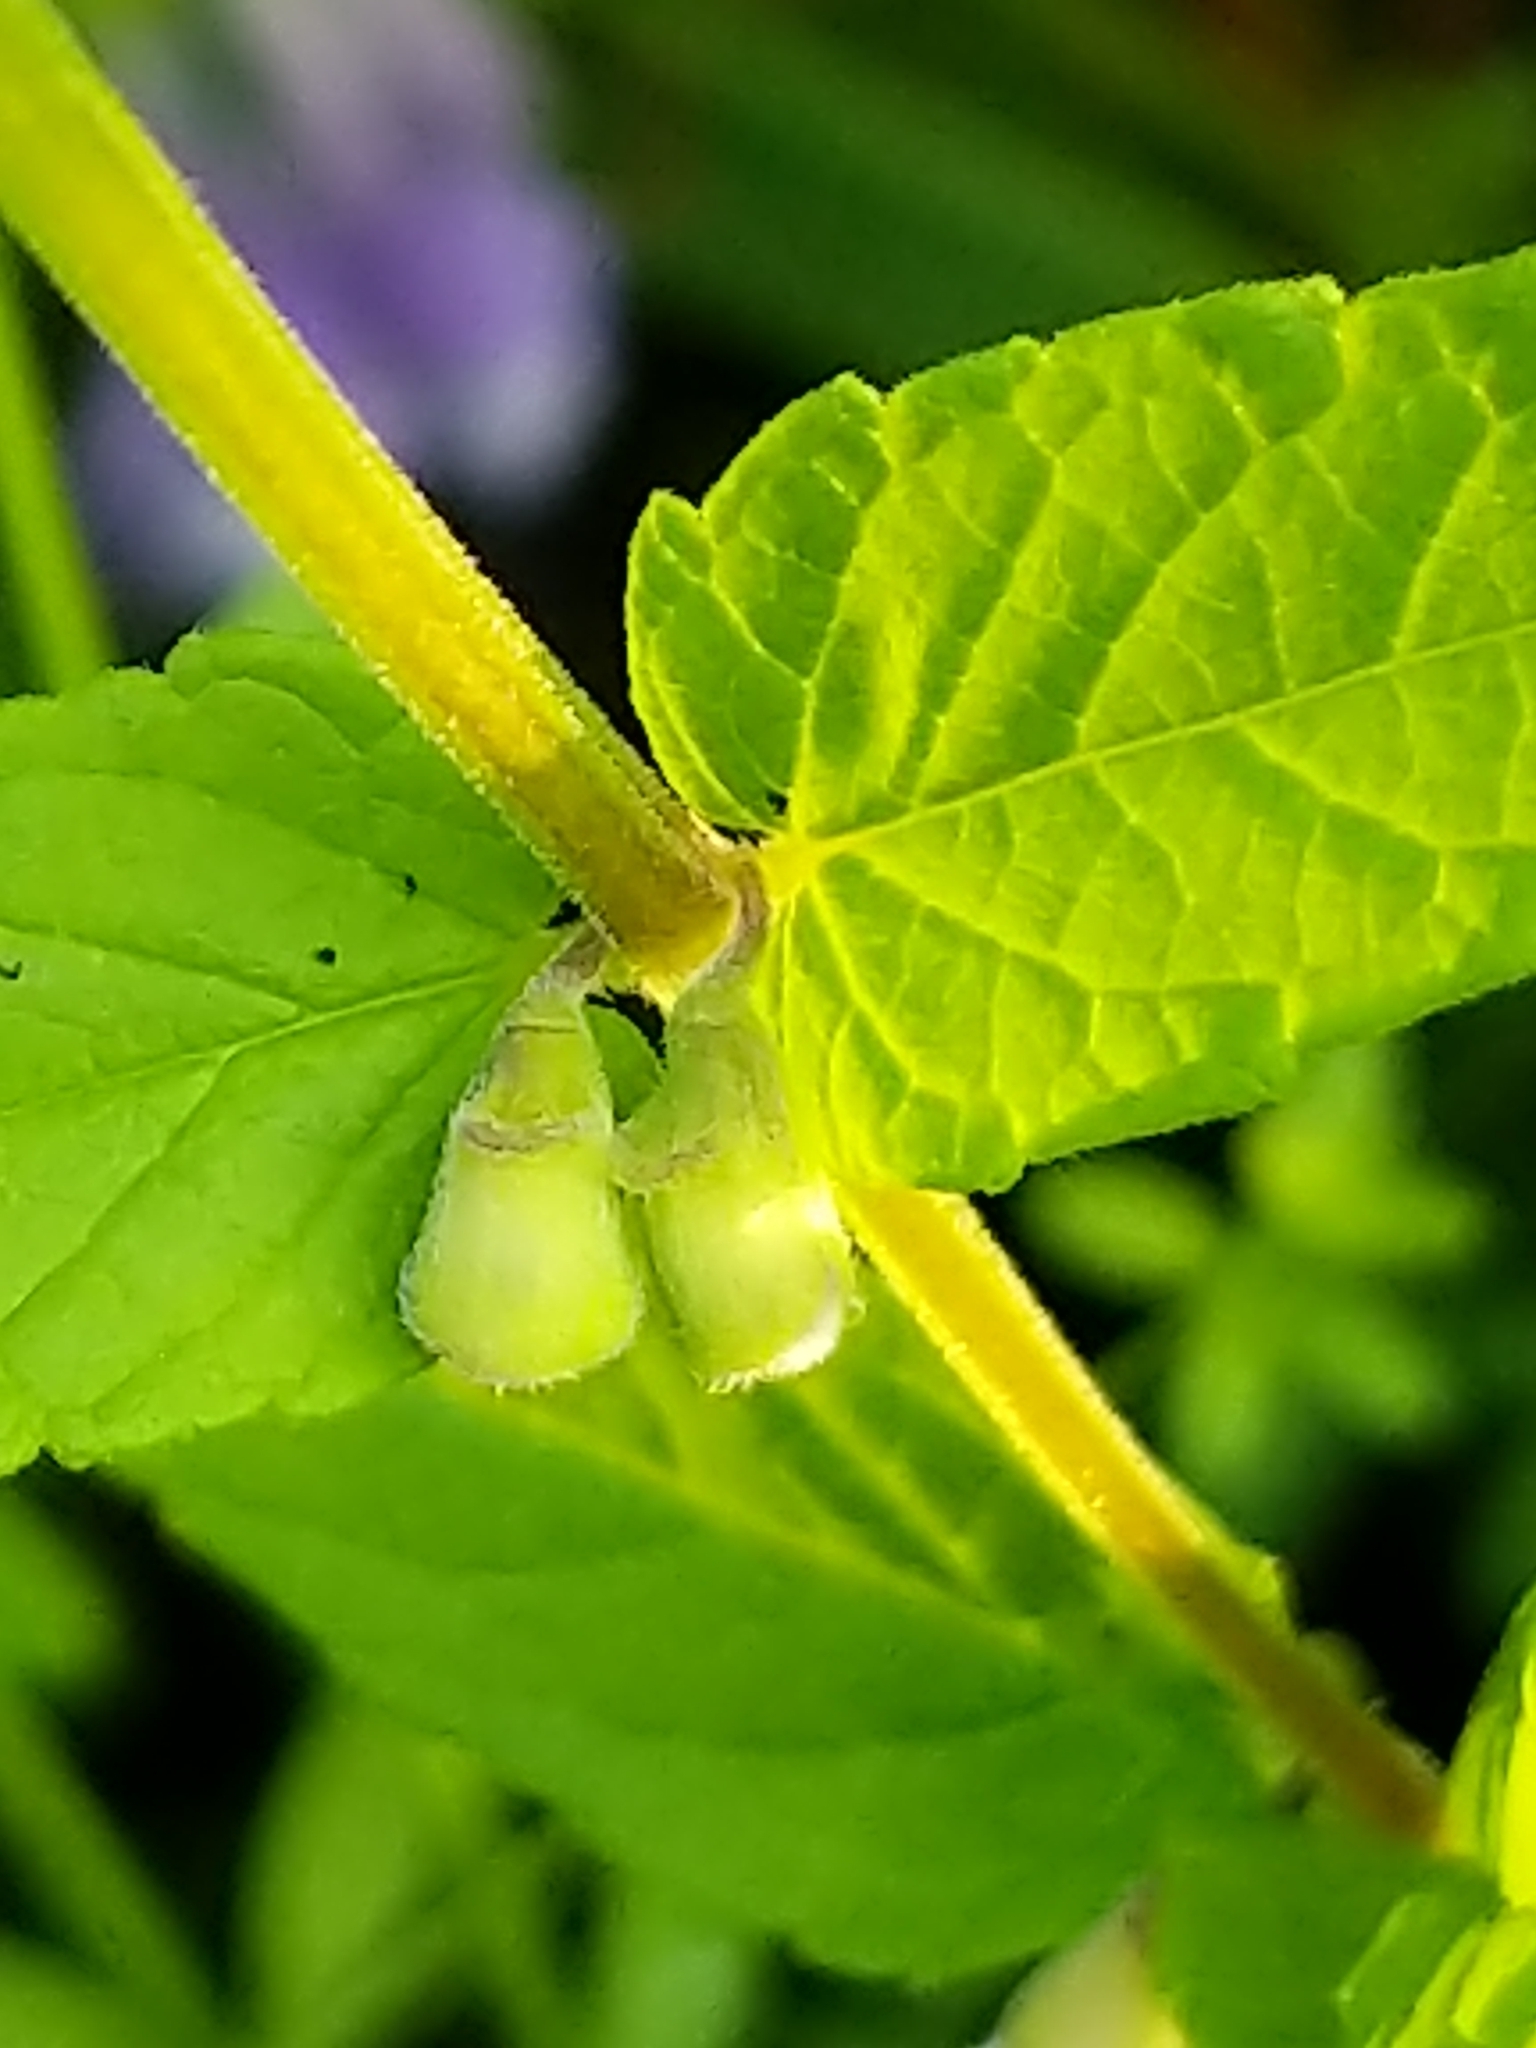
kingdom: Plantae
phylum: Tracheophyta
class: Magnoliopsida
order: Lamiales
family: Lamiaceae
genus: Scutellaria
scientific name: Scutellaria galericulata
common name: Skullcap
